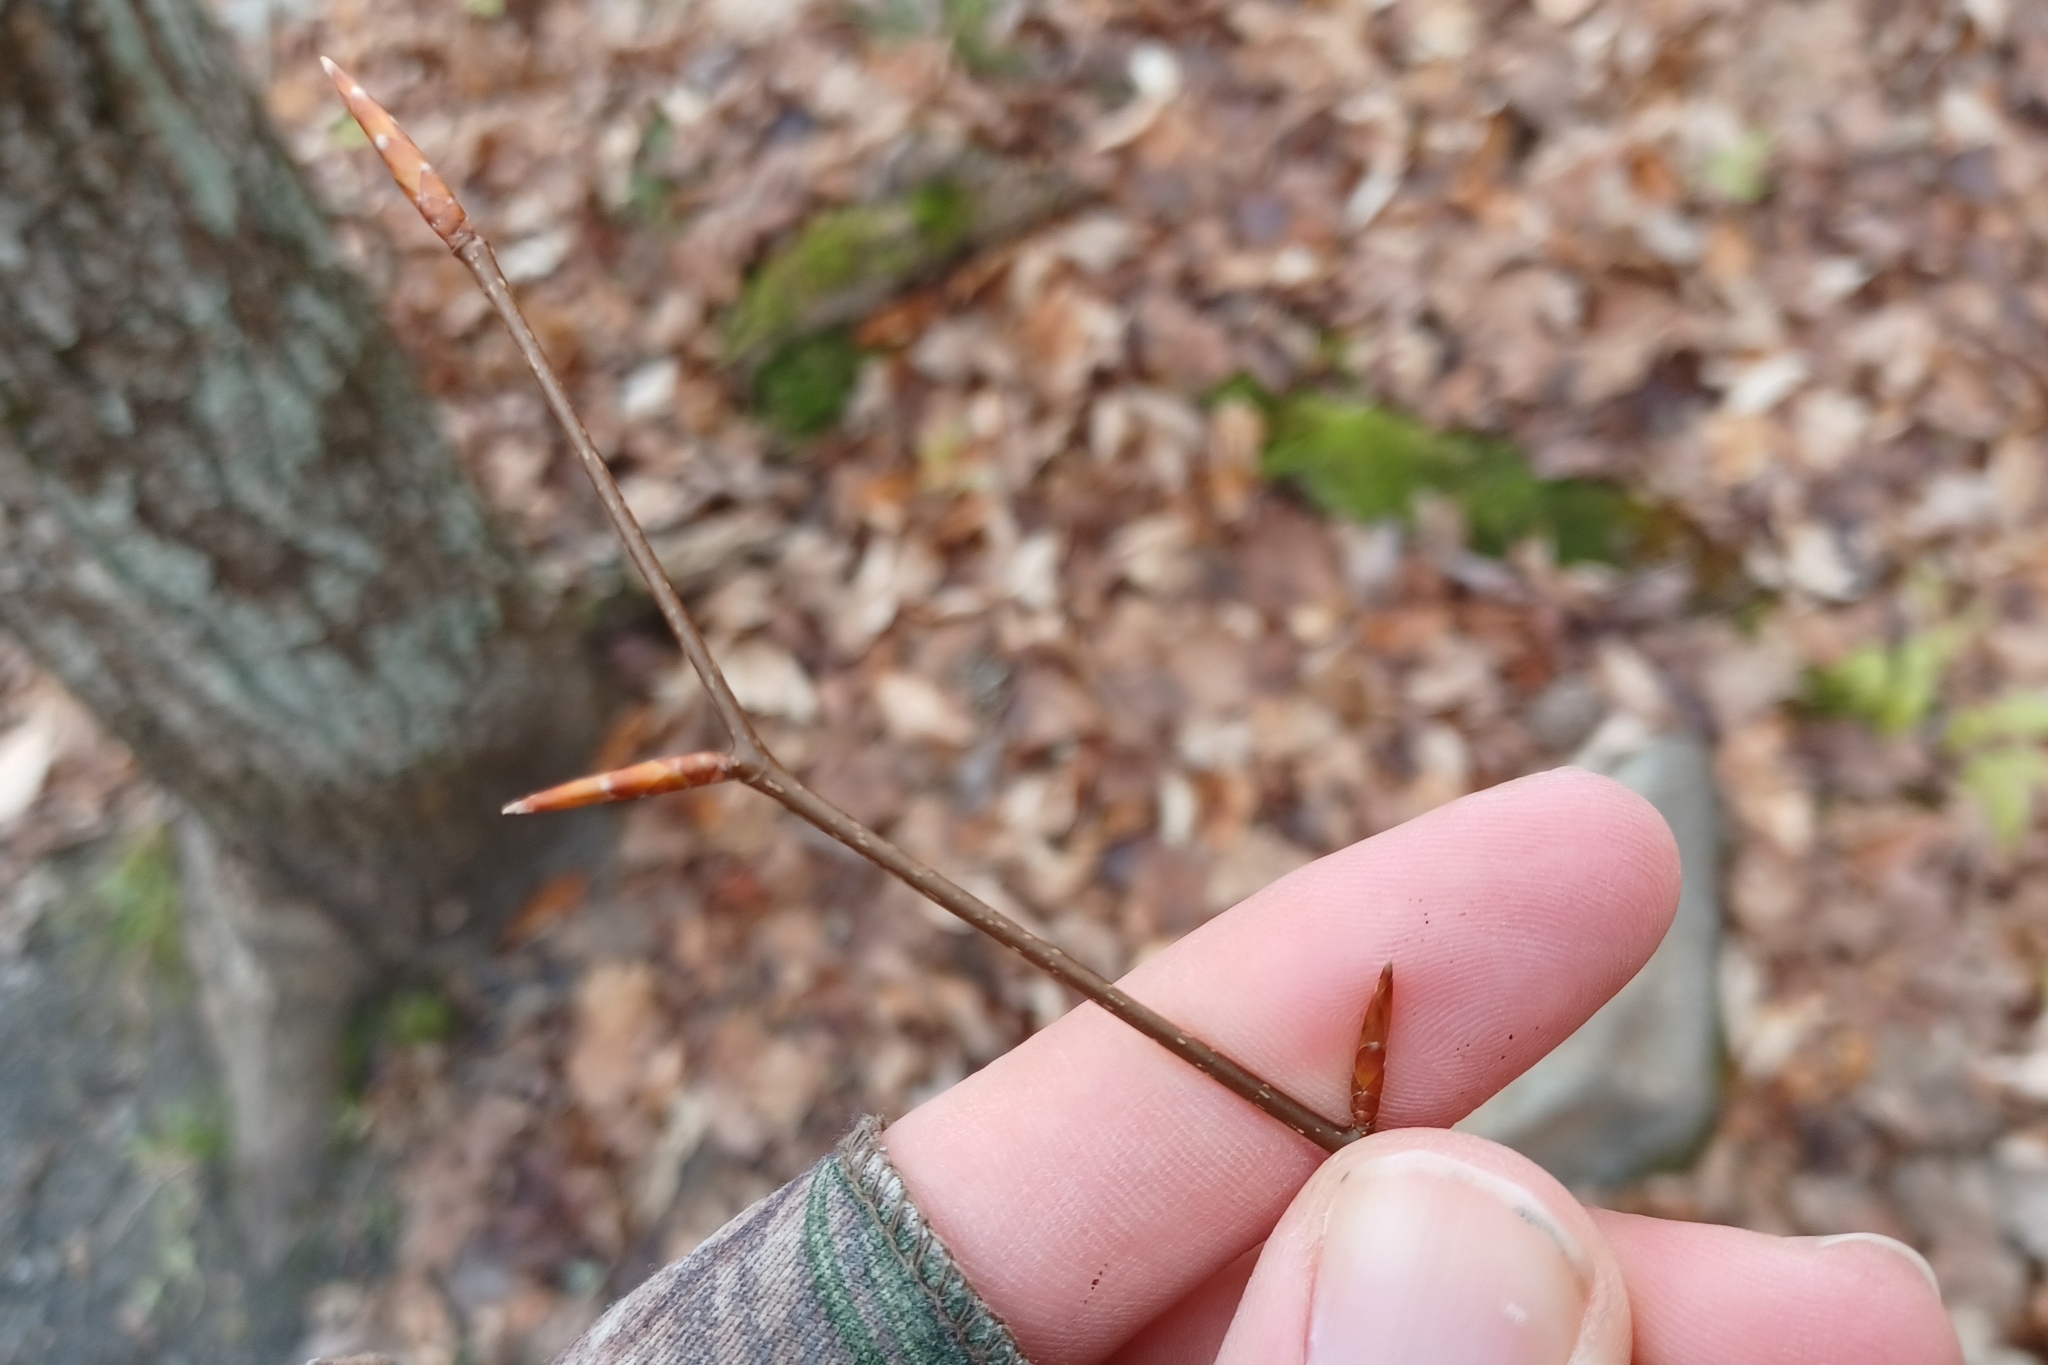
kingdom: Plantae
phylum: Tracheophyta
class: Magnoliopsida
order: Fagales
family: Fagaceae
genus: Fagus
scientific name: Fagus grandifolia
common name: American beech
